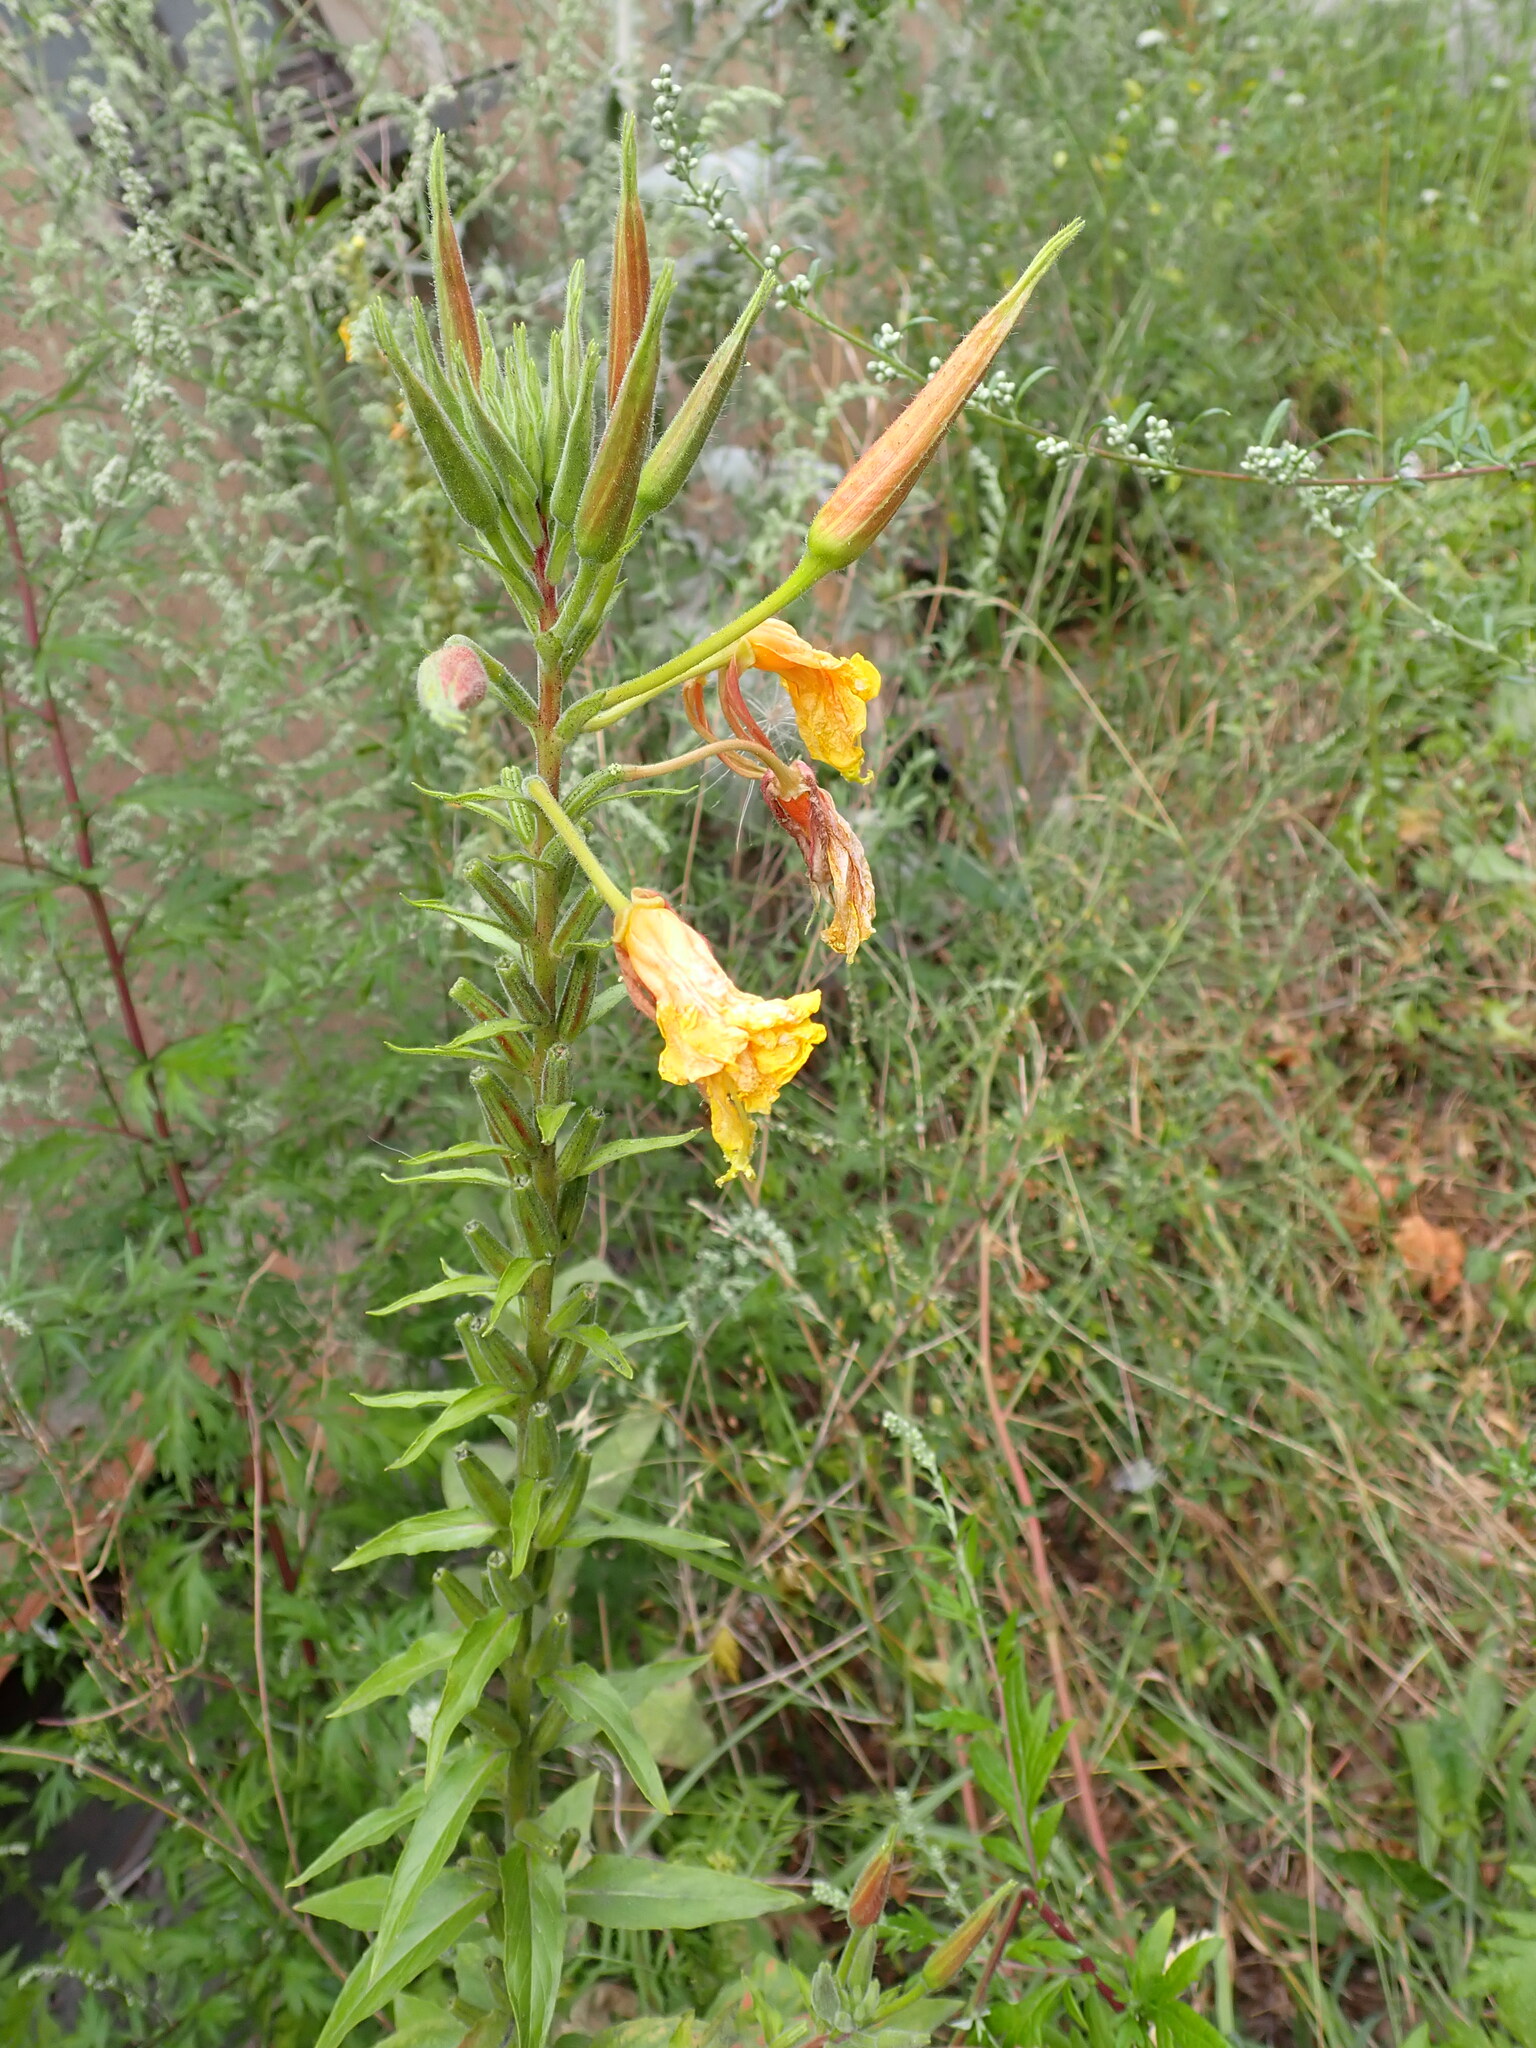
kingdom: Plantae
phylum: Tracheophyta
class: Magnoliopsida
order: Myrtales
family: Onagraceae
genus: Oenothera
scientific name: Oenothera glazioviana
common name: Large-flowered evening-primrose
